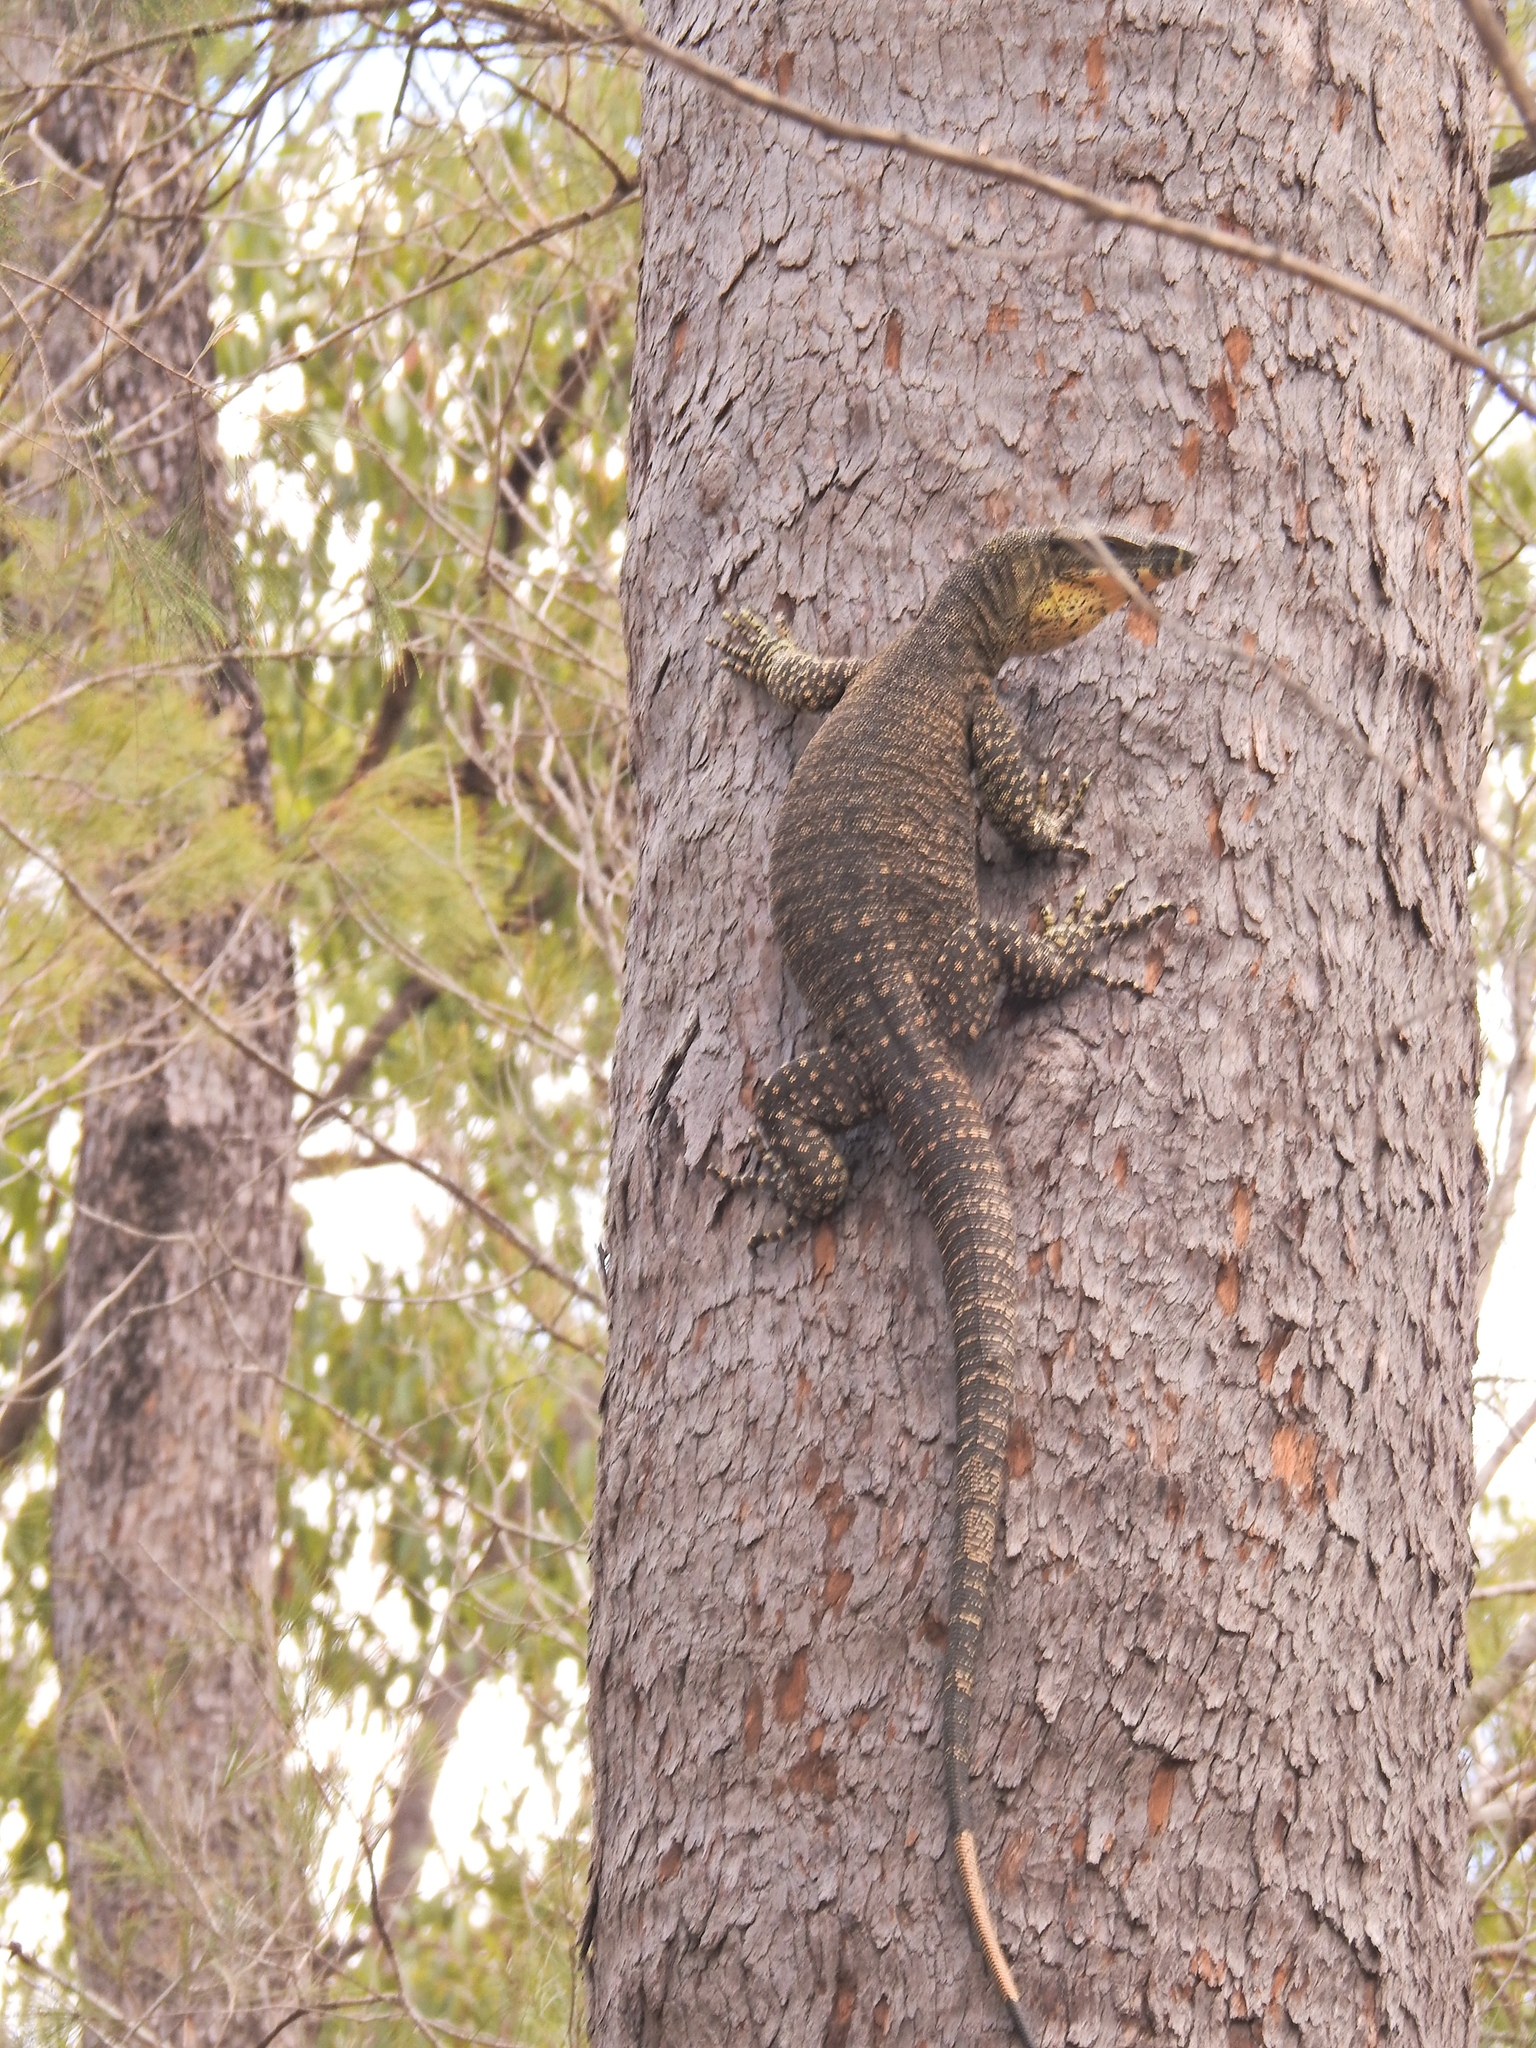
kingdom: Animalia
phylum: Chordata
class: Squamata
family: Varanidae
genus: Varanus
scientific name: Varanus varius
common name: Lace monitor
